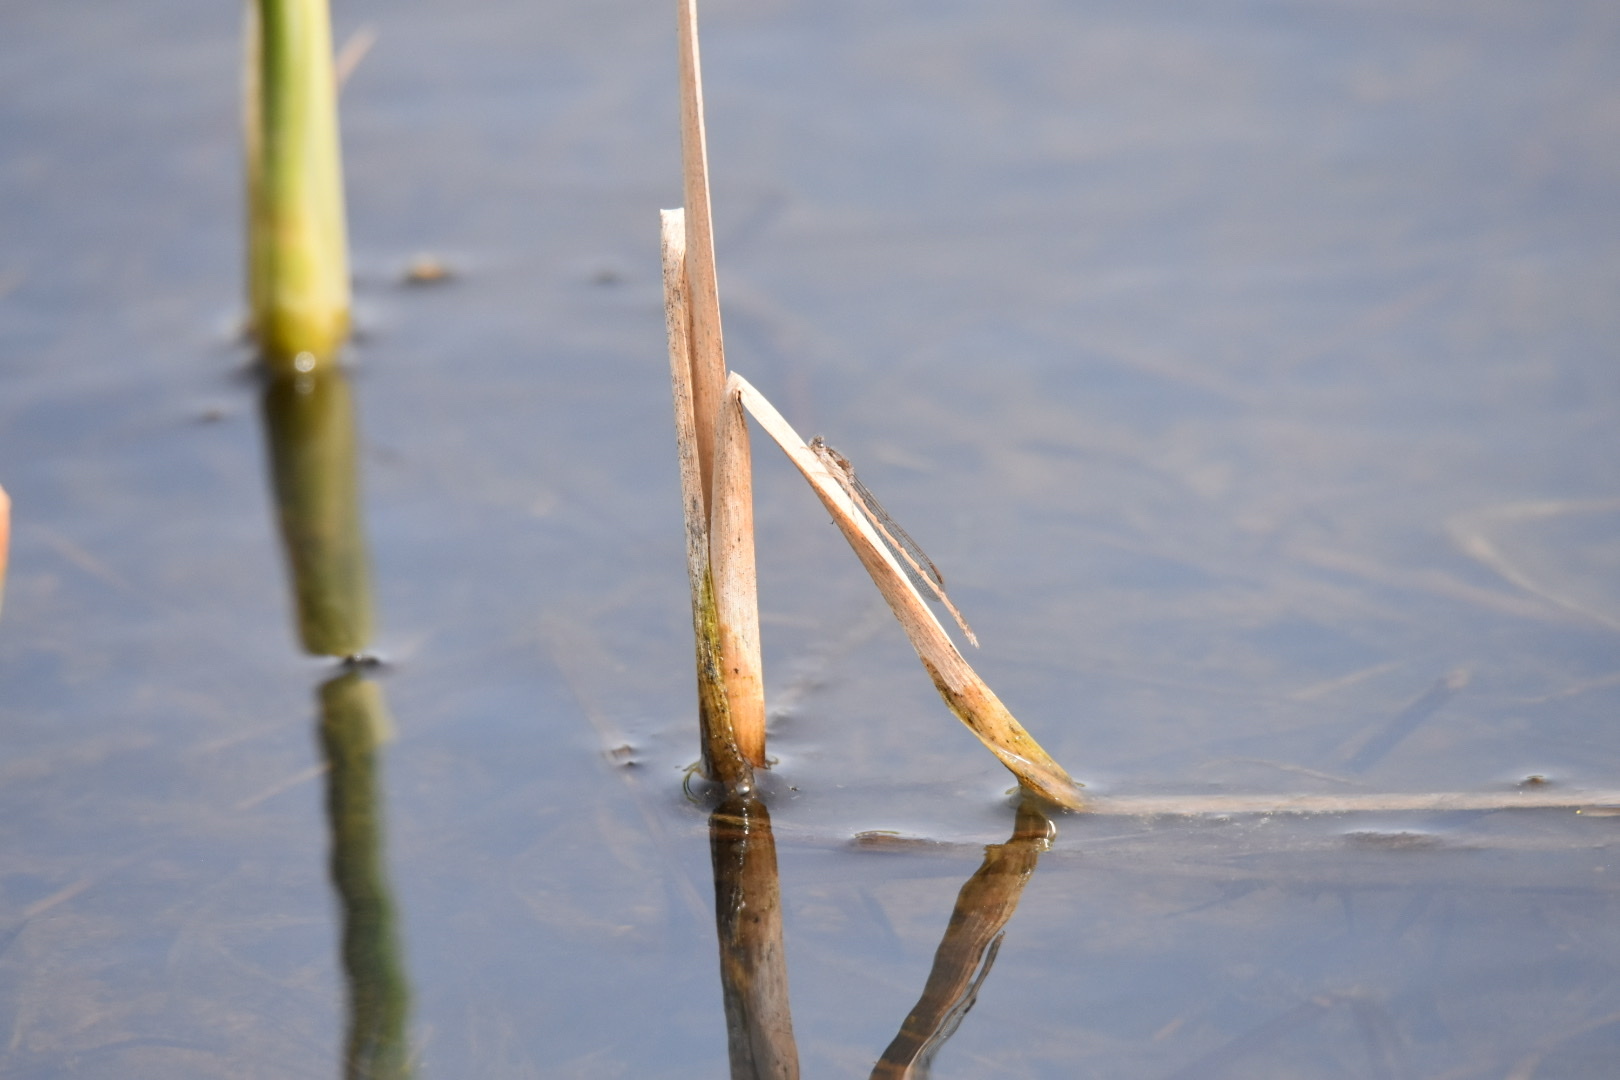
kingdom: Animalia
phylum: Arthropoda
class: Insecta
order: Odonata
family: Lestidae
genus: Sympecma
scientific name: Sympecma fusca
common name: Common winter damsel
